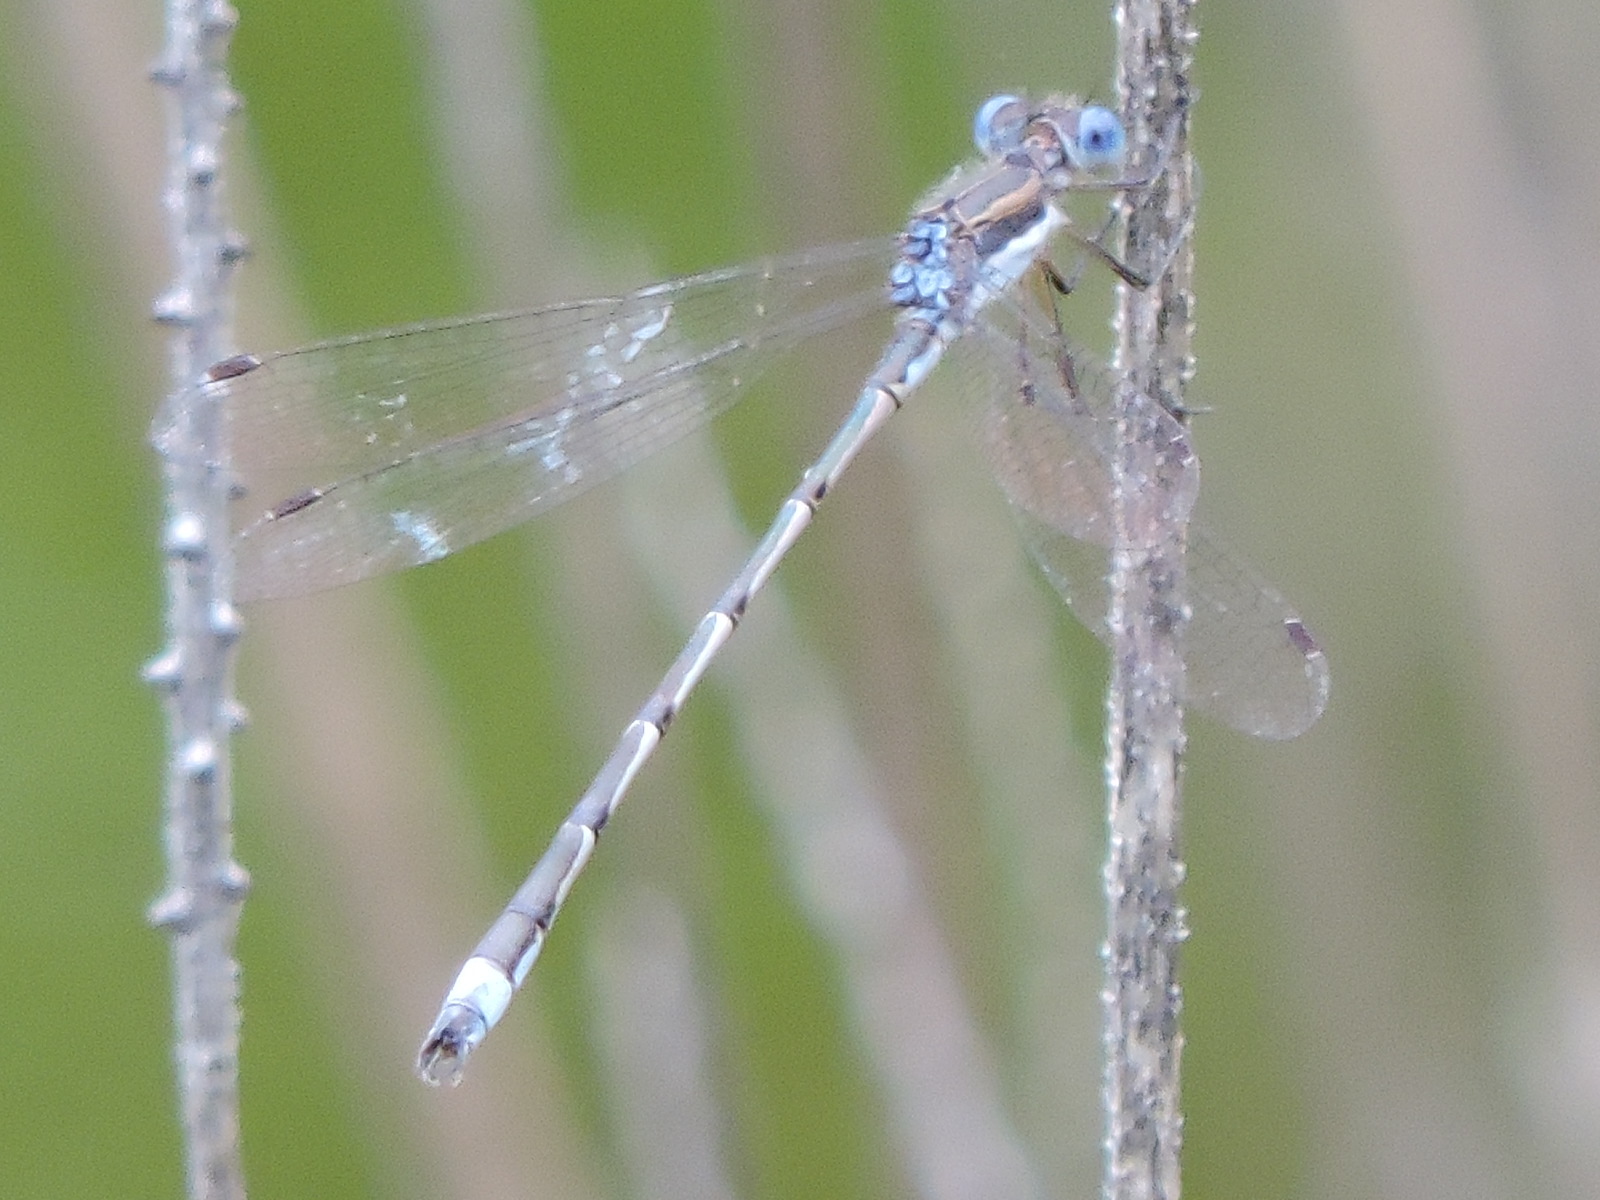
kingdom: Animalia
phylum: Arthropoda
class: Insecta
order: Odonata
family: Lestidae
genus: Lestes
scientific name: Lestes australis
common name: Southern spreadwing
